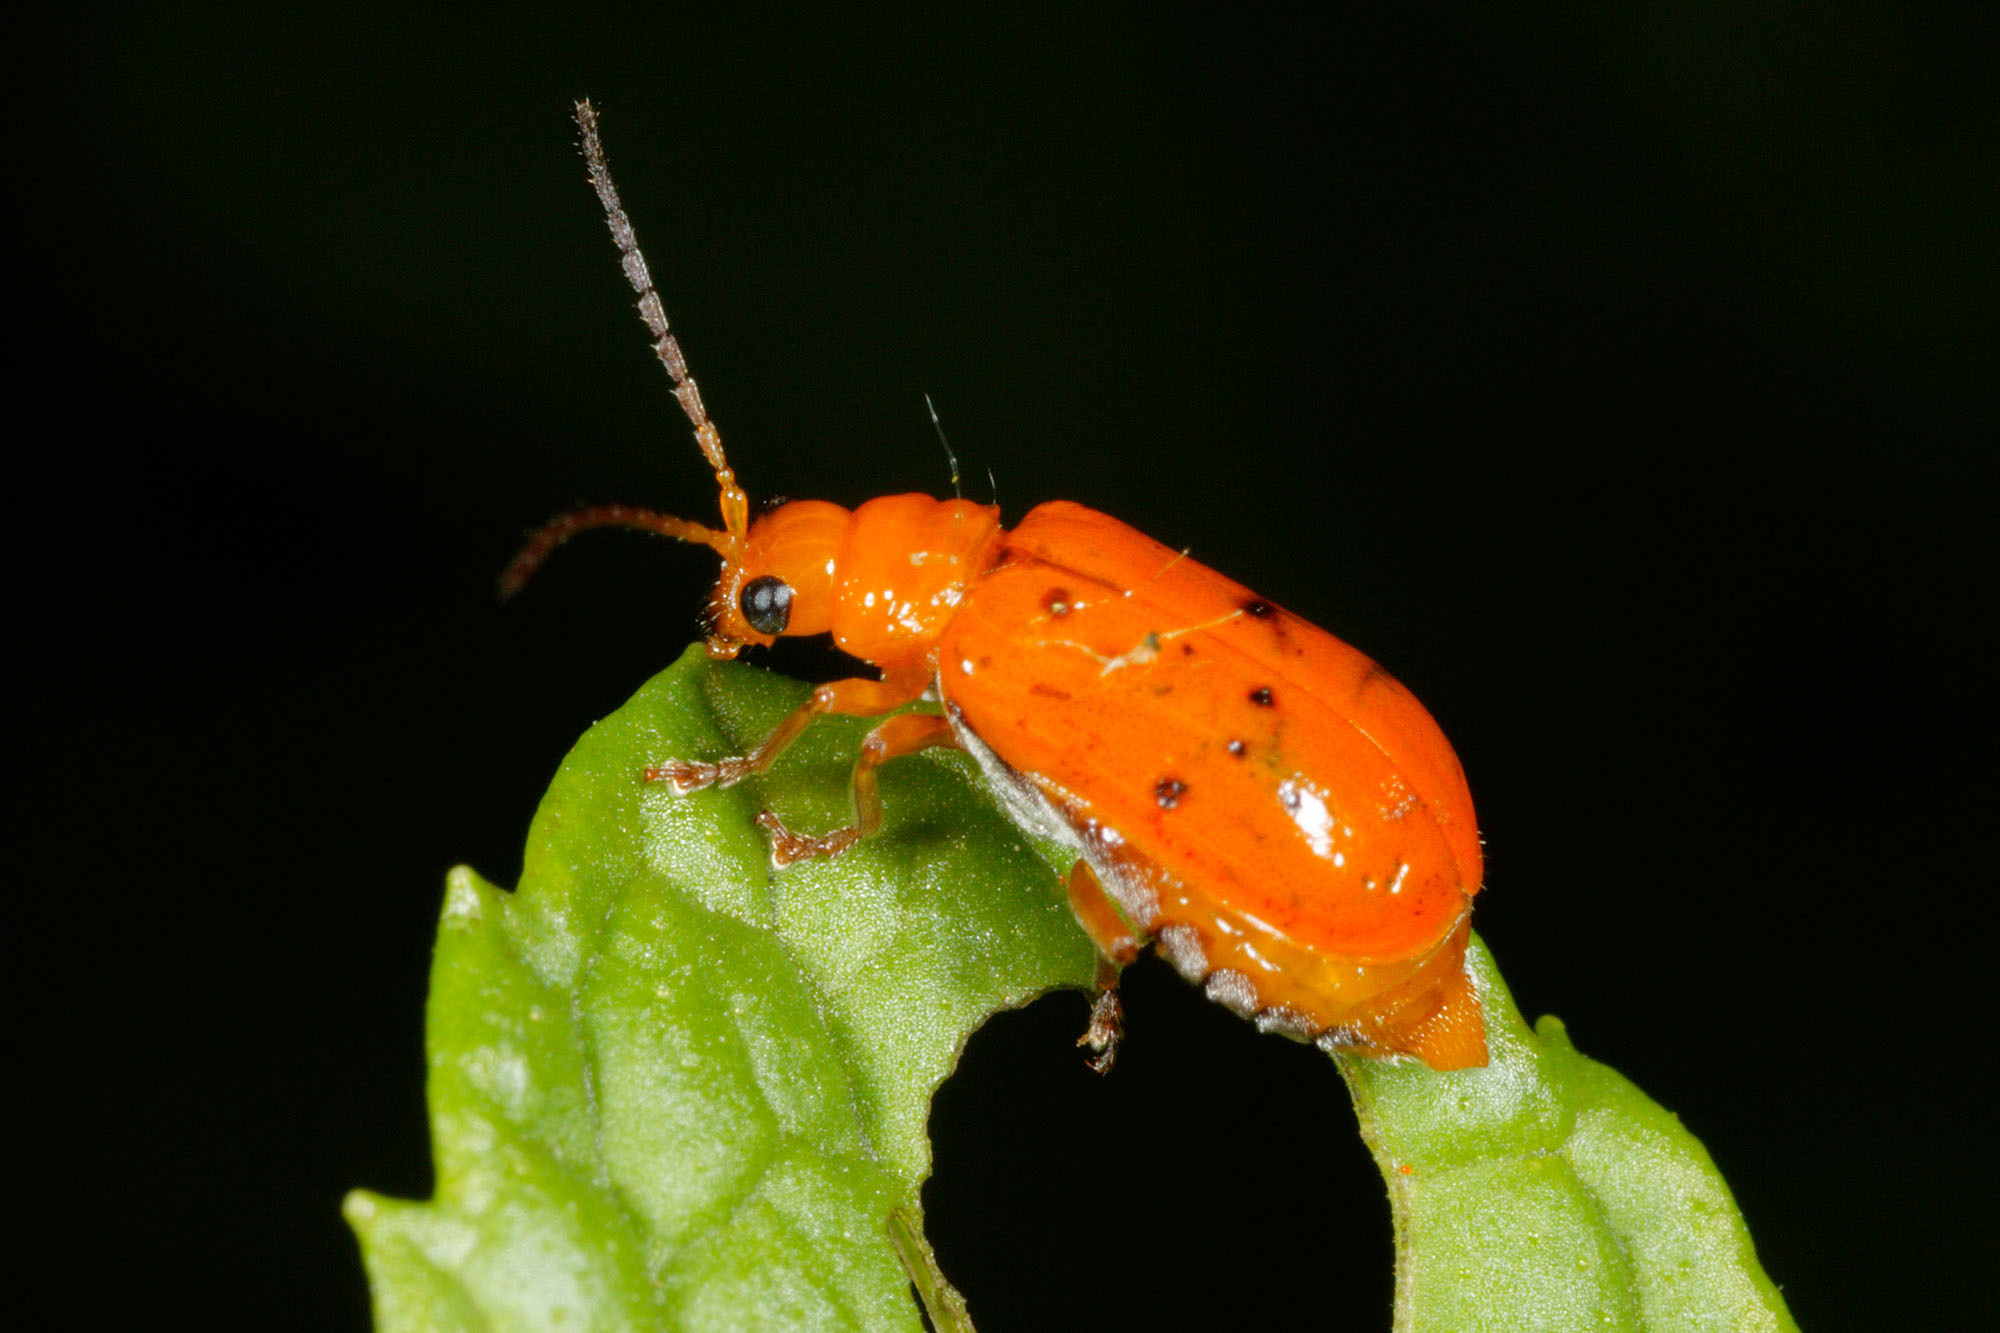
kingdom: Animalia
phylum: Arthropoda
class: Insecta
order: Coleoptera
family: Chrysomelidae
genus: Aulacophora
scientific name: Aulacophora relicta
